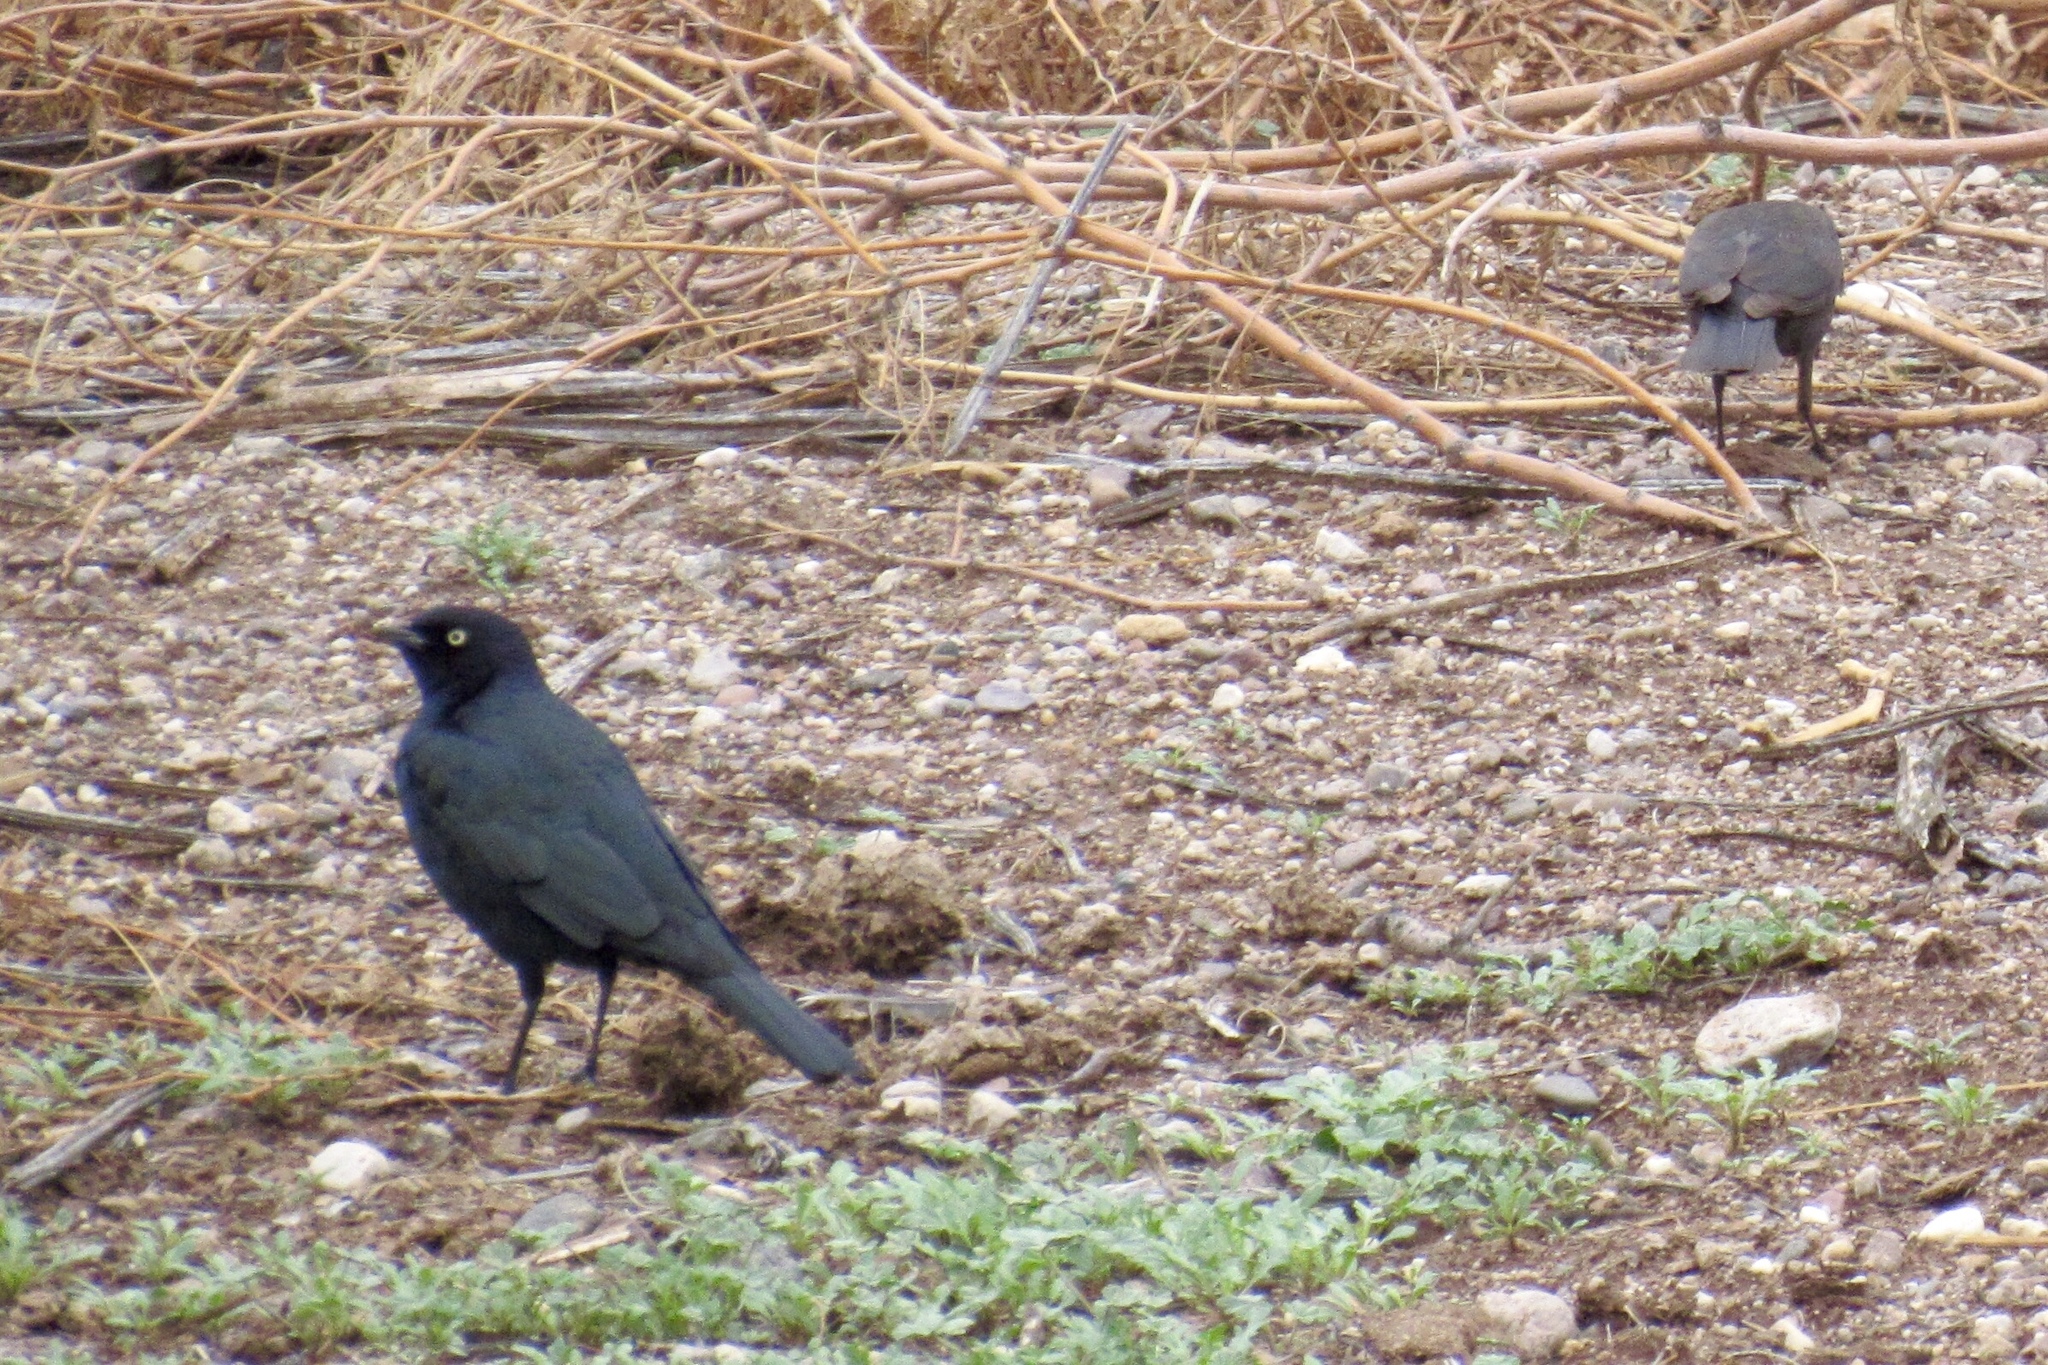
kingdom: Animalia
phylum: Chordata
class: Aves
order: Passeriformes
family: Icteridae
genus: Euphagus
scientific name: Euphagus cyanocephalus
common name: Brewer's blackbird
